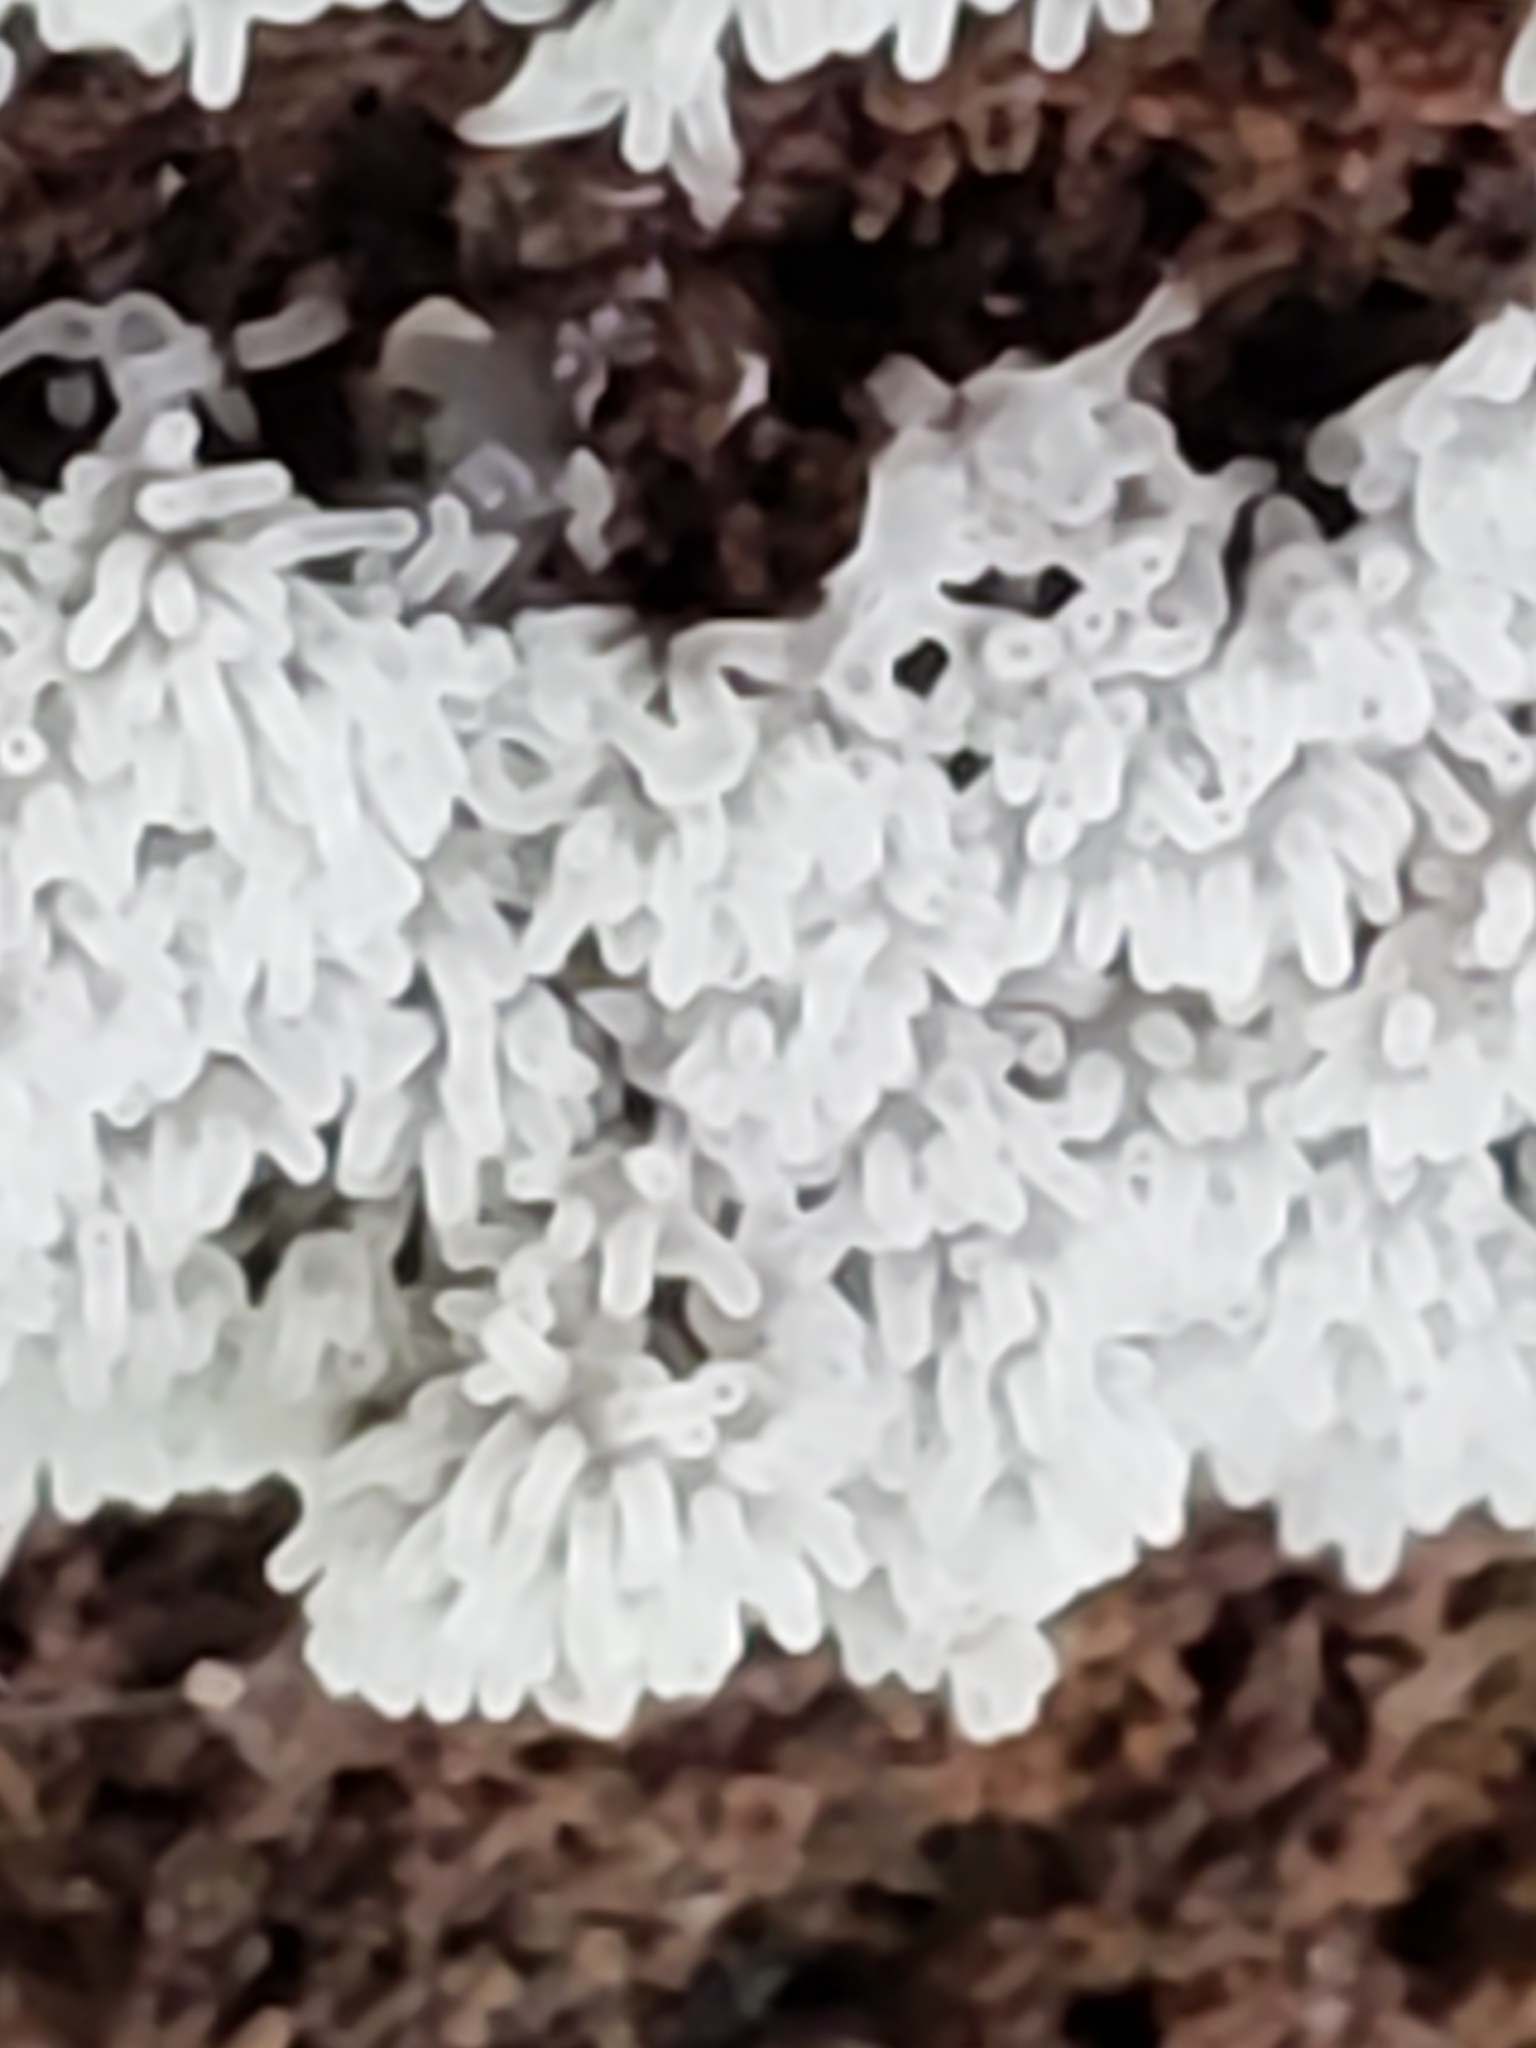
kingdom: Protozoa
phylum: Mycetozoa
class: Protosteliomycetes
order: Ceratiomyxales
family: Ceratiomyxaceae
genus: Ceratiomyxa
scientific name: Ceratiomyxa fruticulosa
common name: Honeycomb coral slime mold
